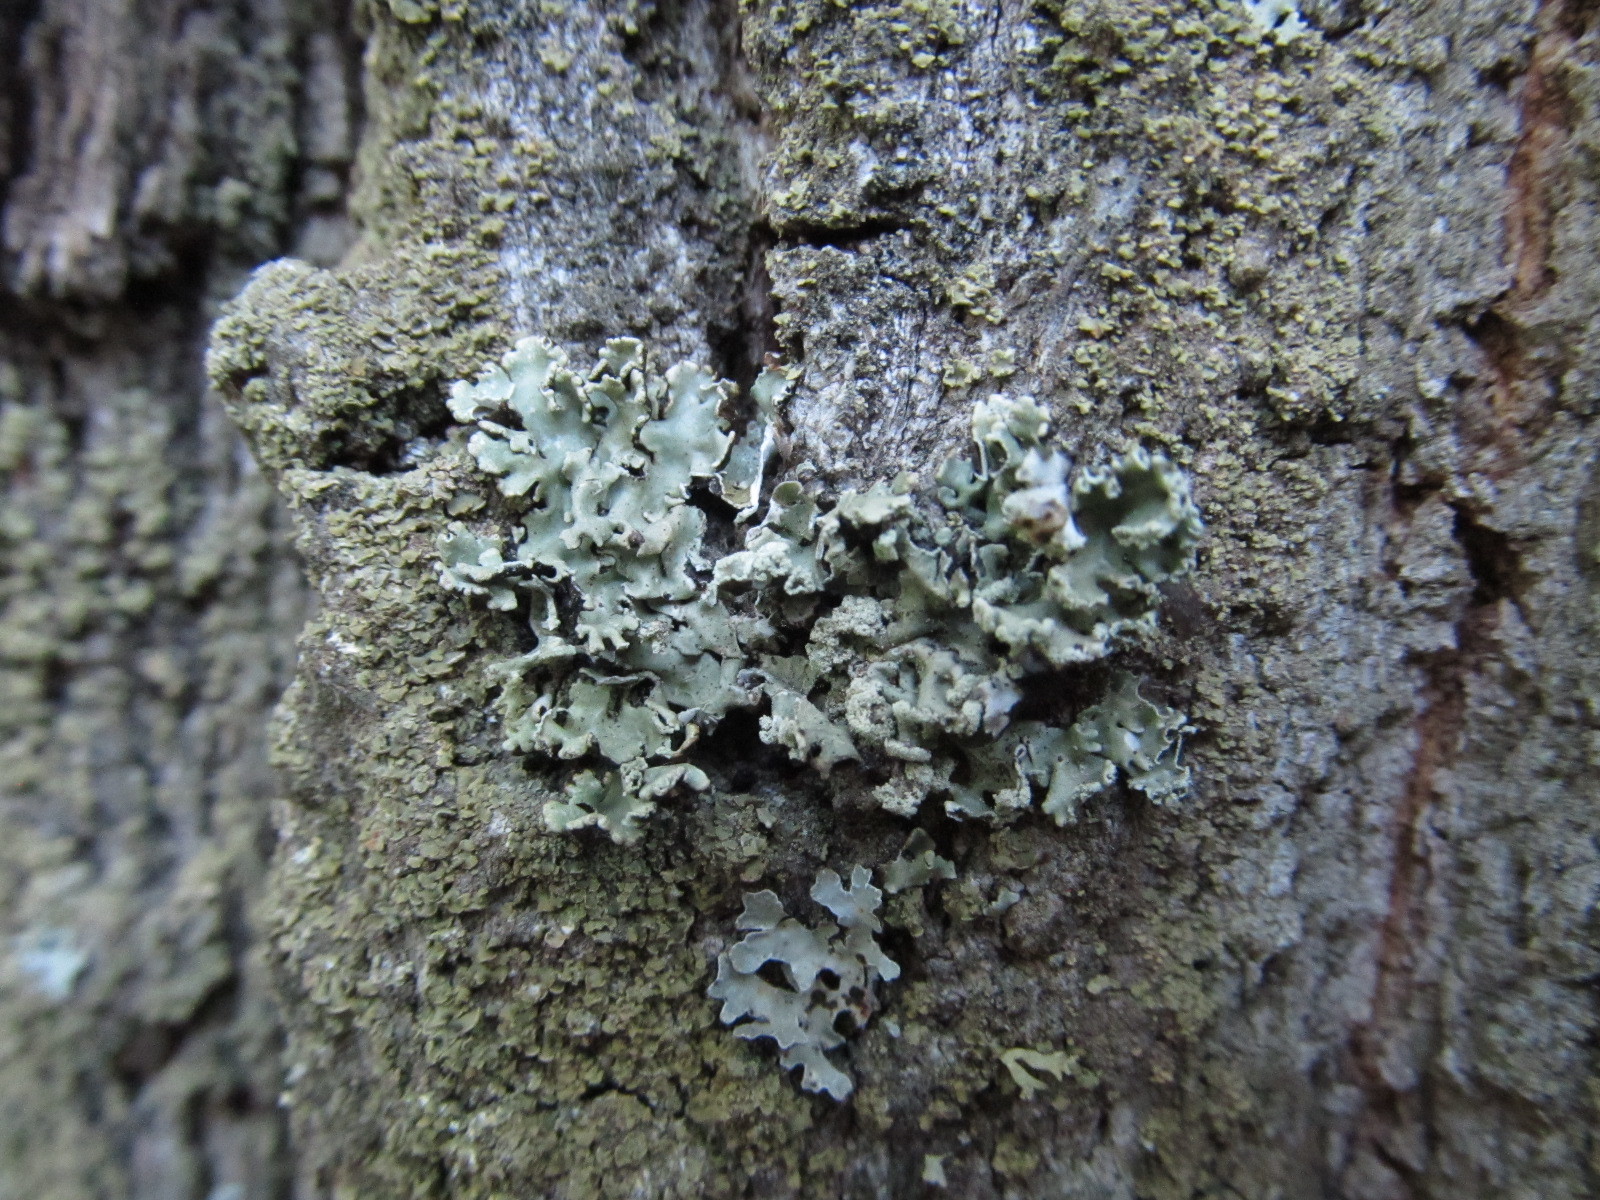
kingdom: Fungi
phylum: Ascomycota
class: Lecanoromycetes
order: Lecanorales
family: Parmeliaceae
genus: Hypogymnia
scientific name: Hypogymnia physodes
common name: Dark crottle
